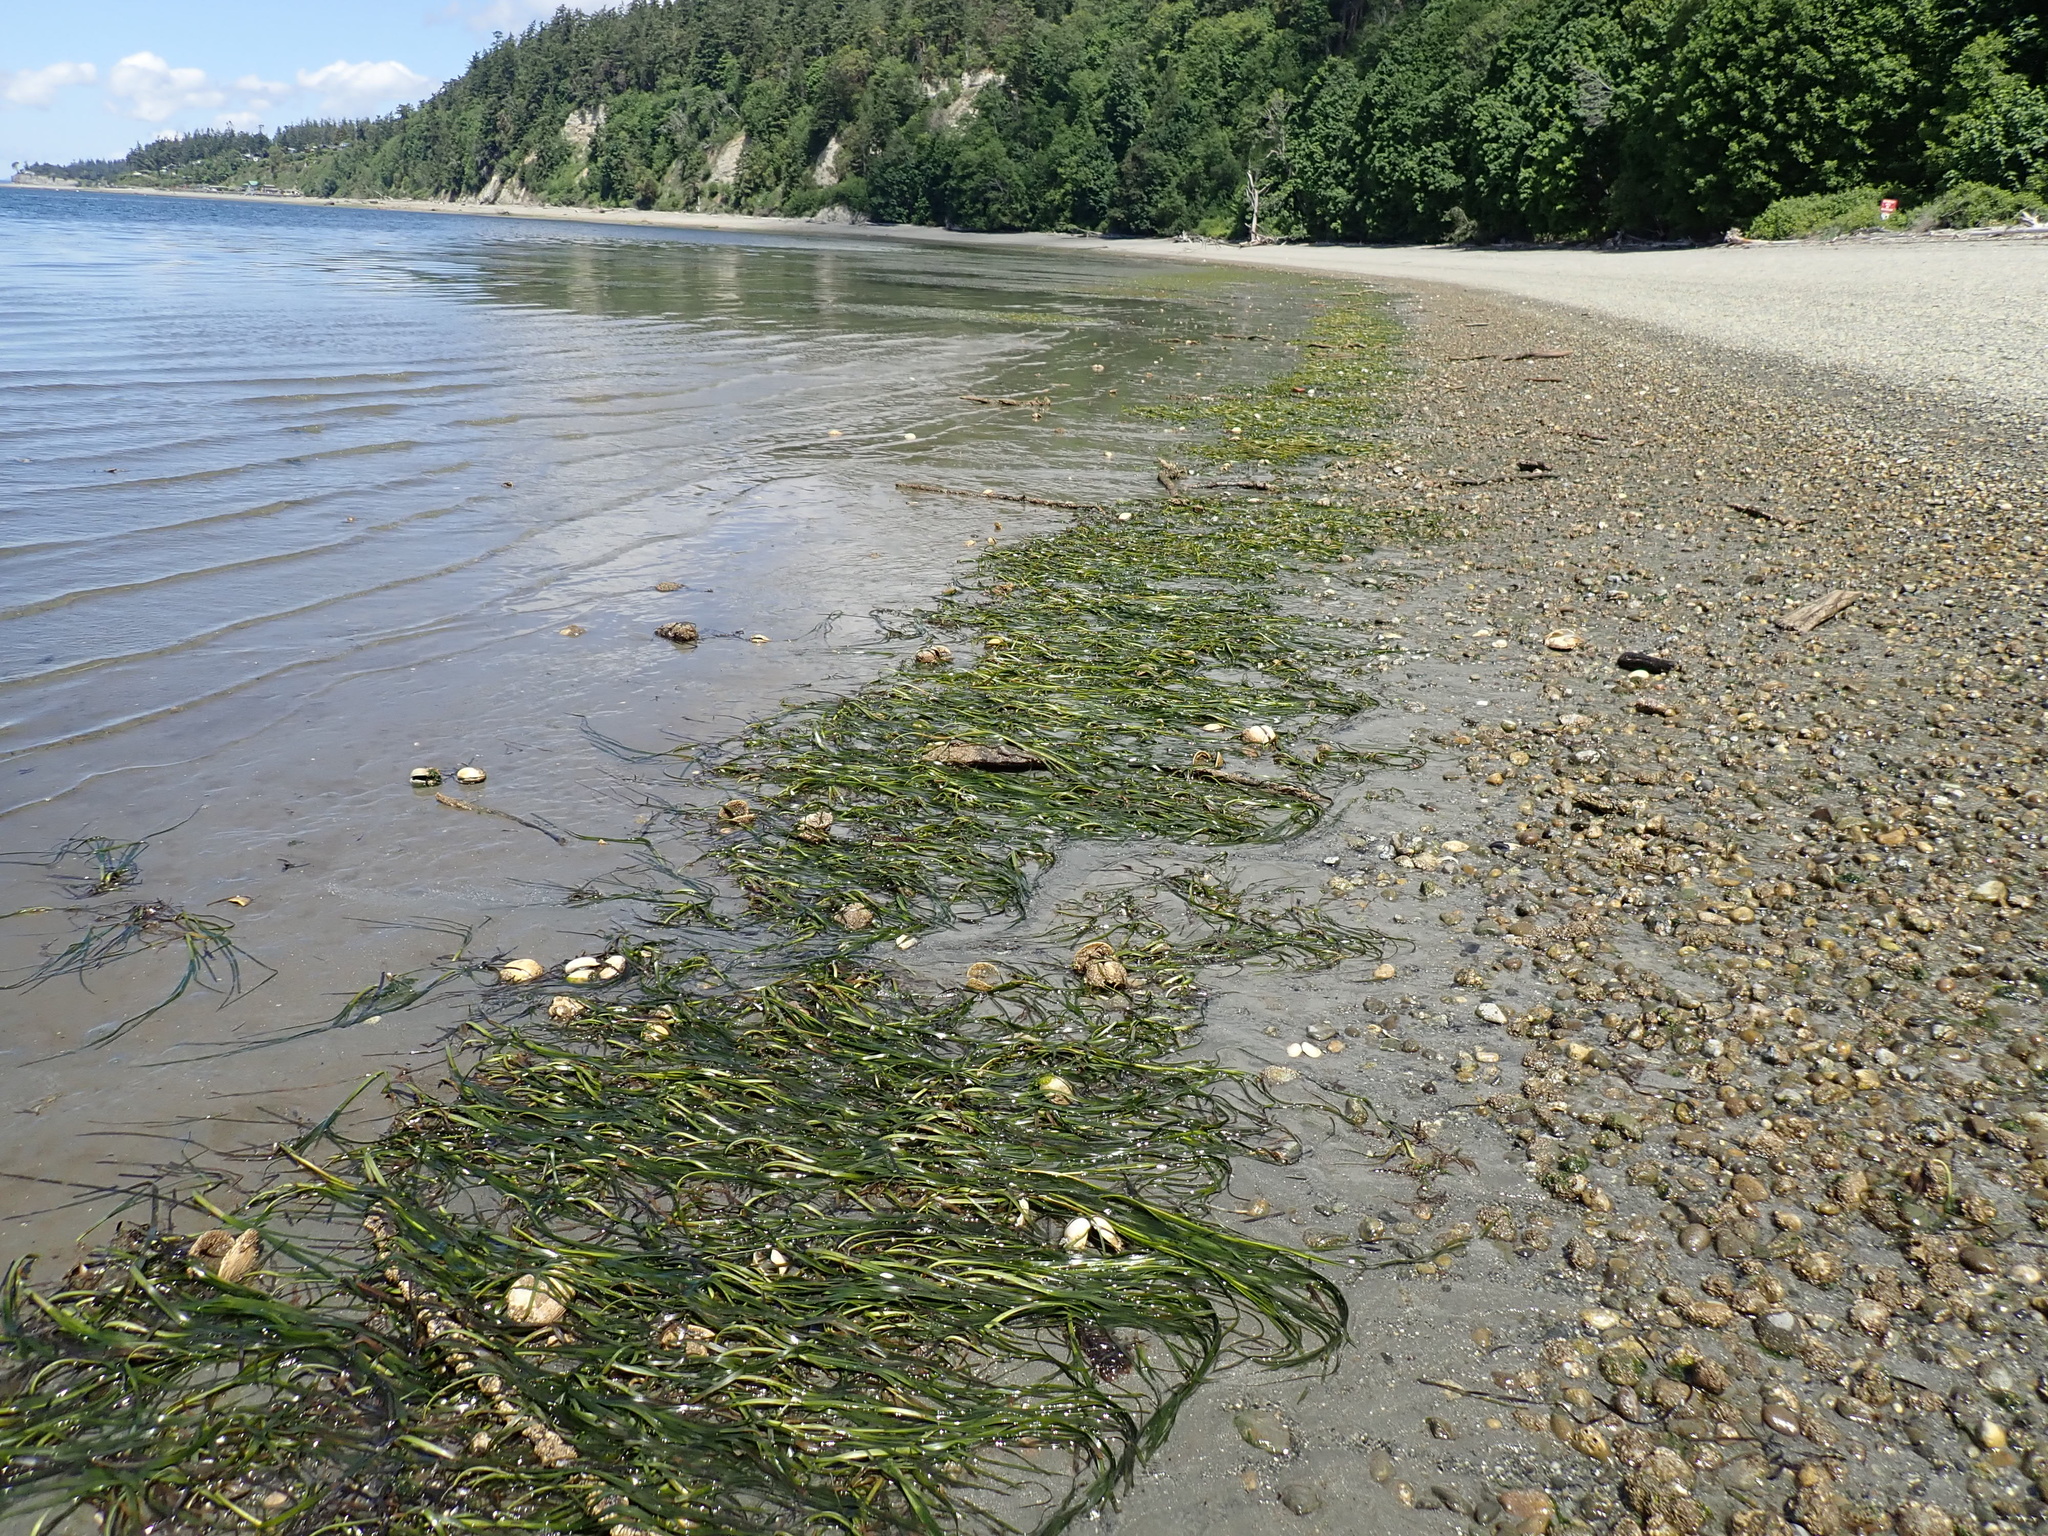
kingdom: Plantae
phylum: Tracheophyta
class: Liliopsida
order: Alismatales
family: Zosteraceae
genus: Zostera
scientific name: Zostera marina
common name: Eelgrass
